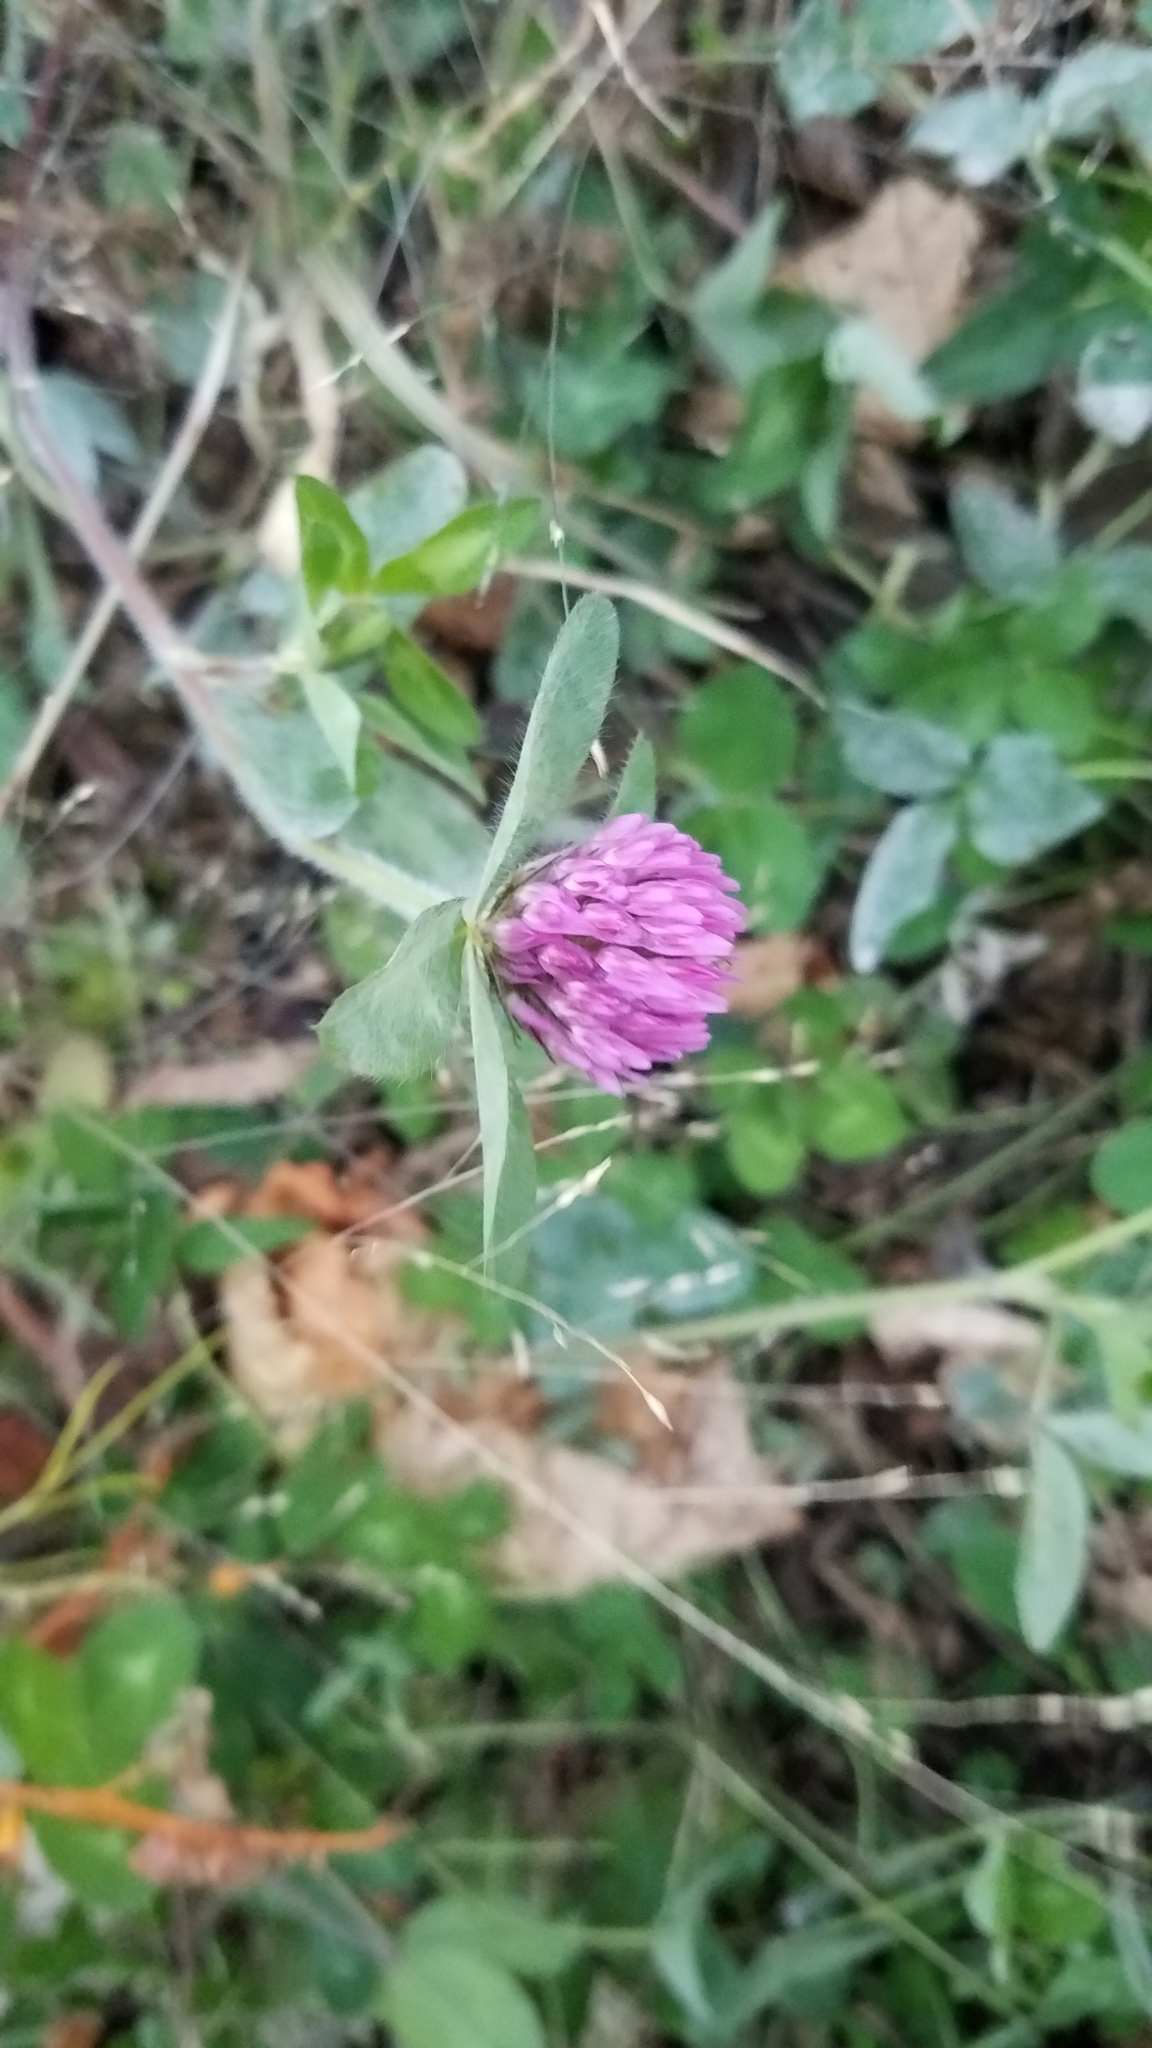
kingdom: Plantae
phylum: Tracheophyta
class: Magnoliopsida
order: Fabales
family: Fabaceae
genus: Trifolium
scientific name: Trifolium pratense
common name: Red clover
